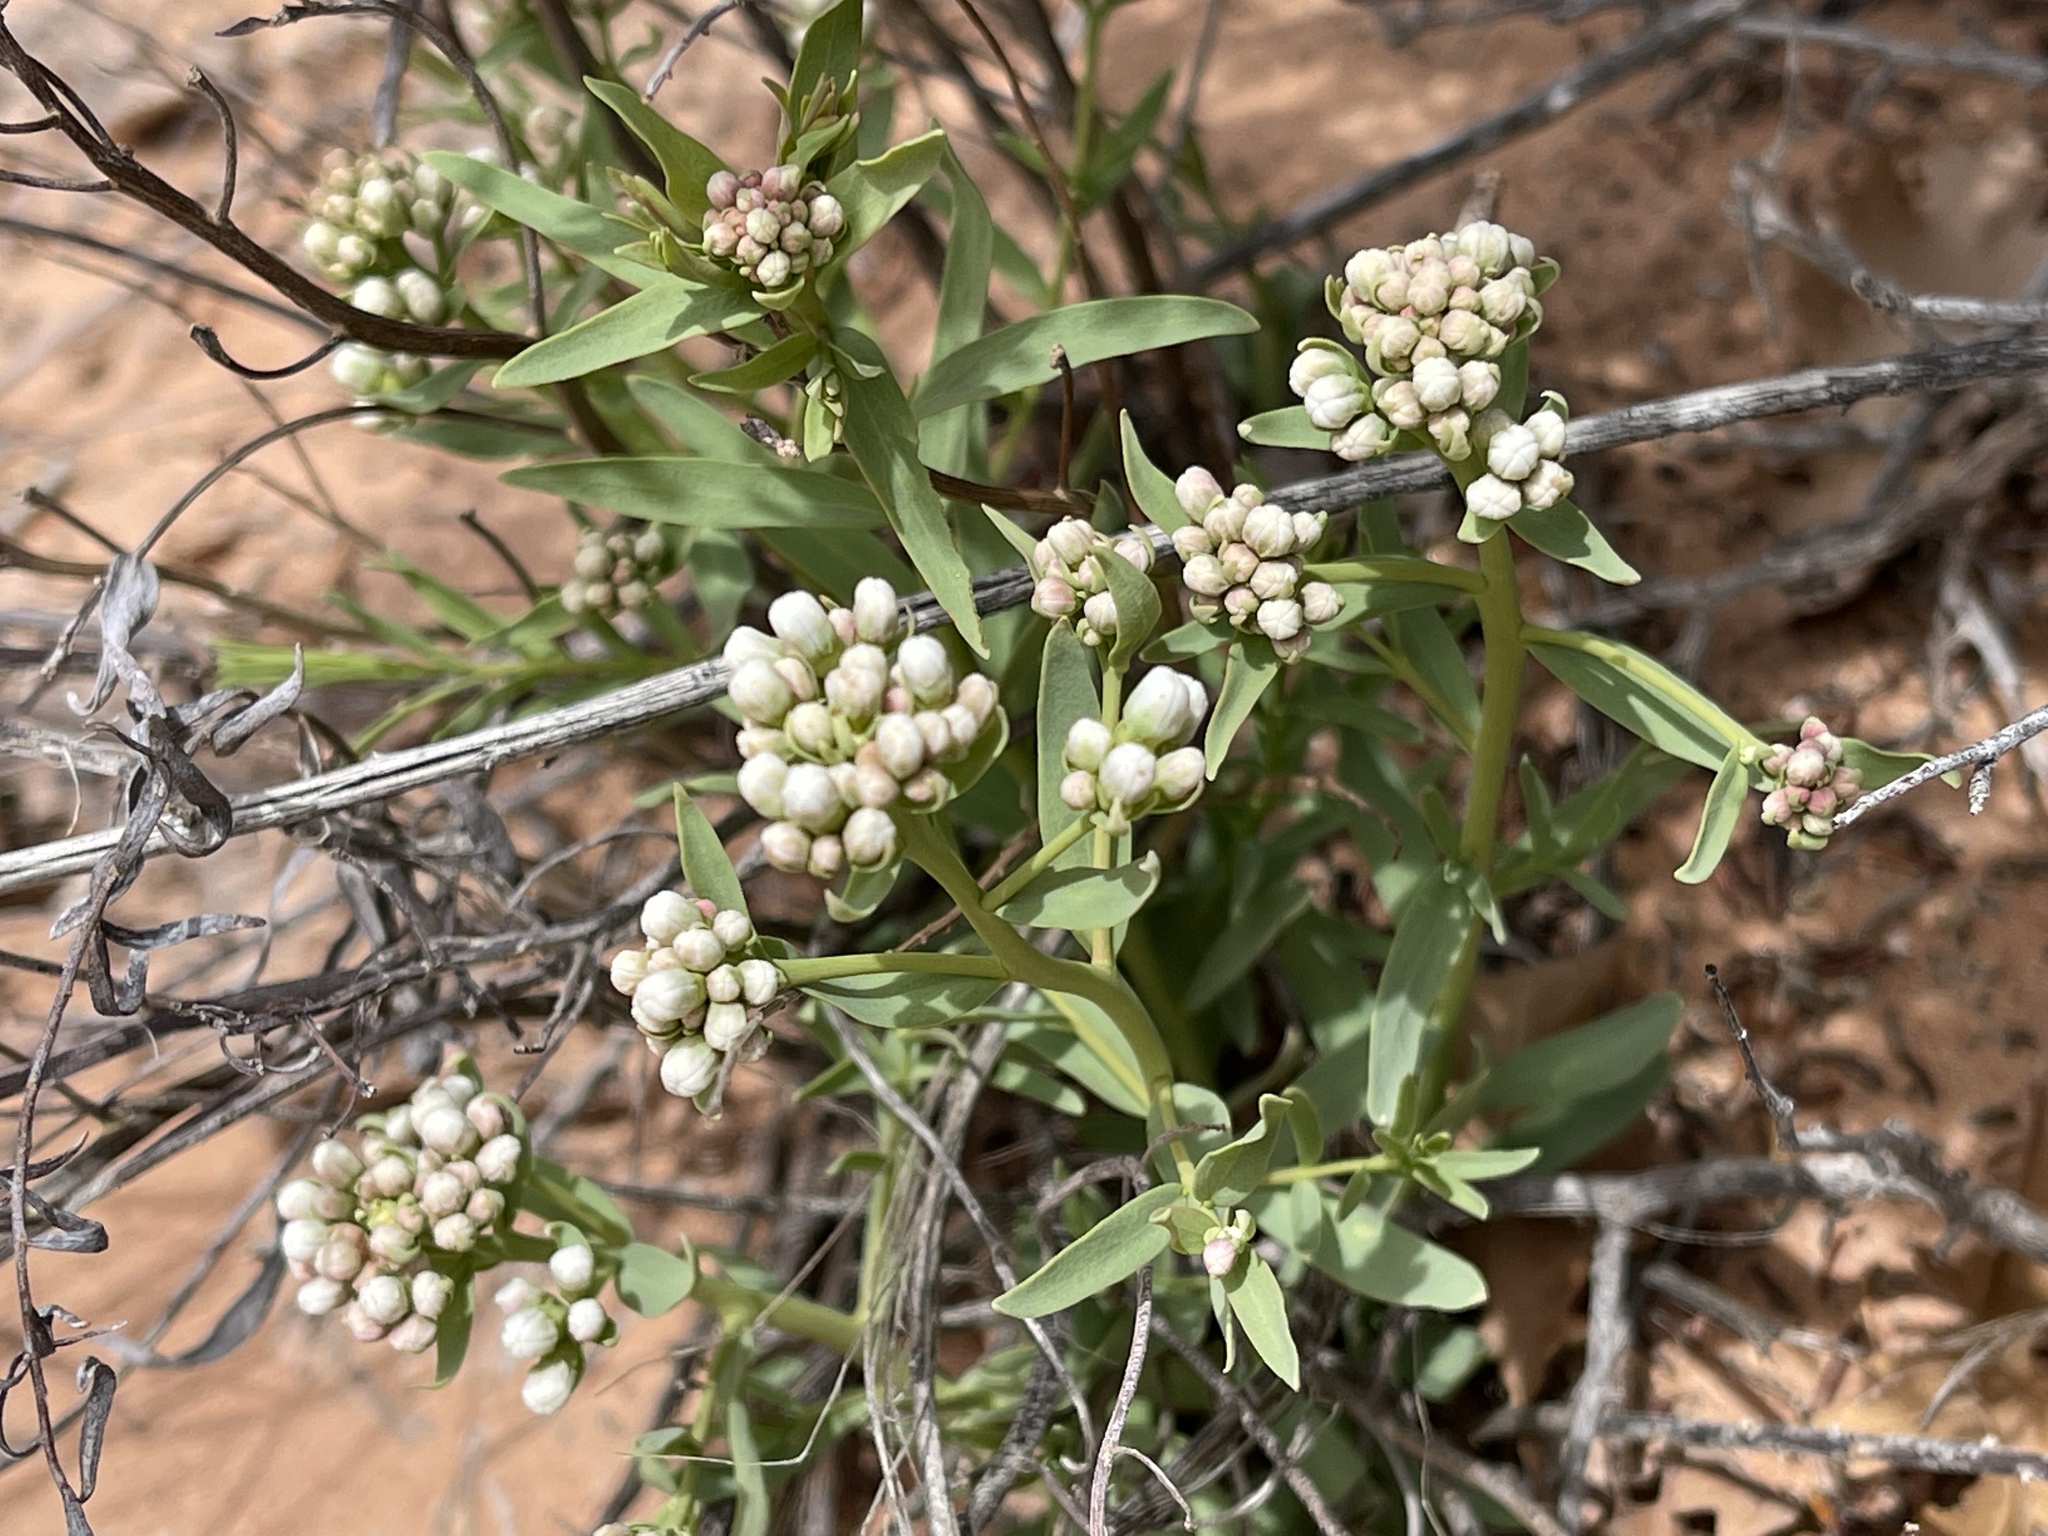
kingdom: Plantae
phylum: Tracheophyta
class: Magnoliopsida
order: Santalales
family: Comandraceae
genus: Comandra
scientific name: Comandra umbellata
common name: Bastard toadflax
